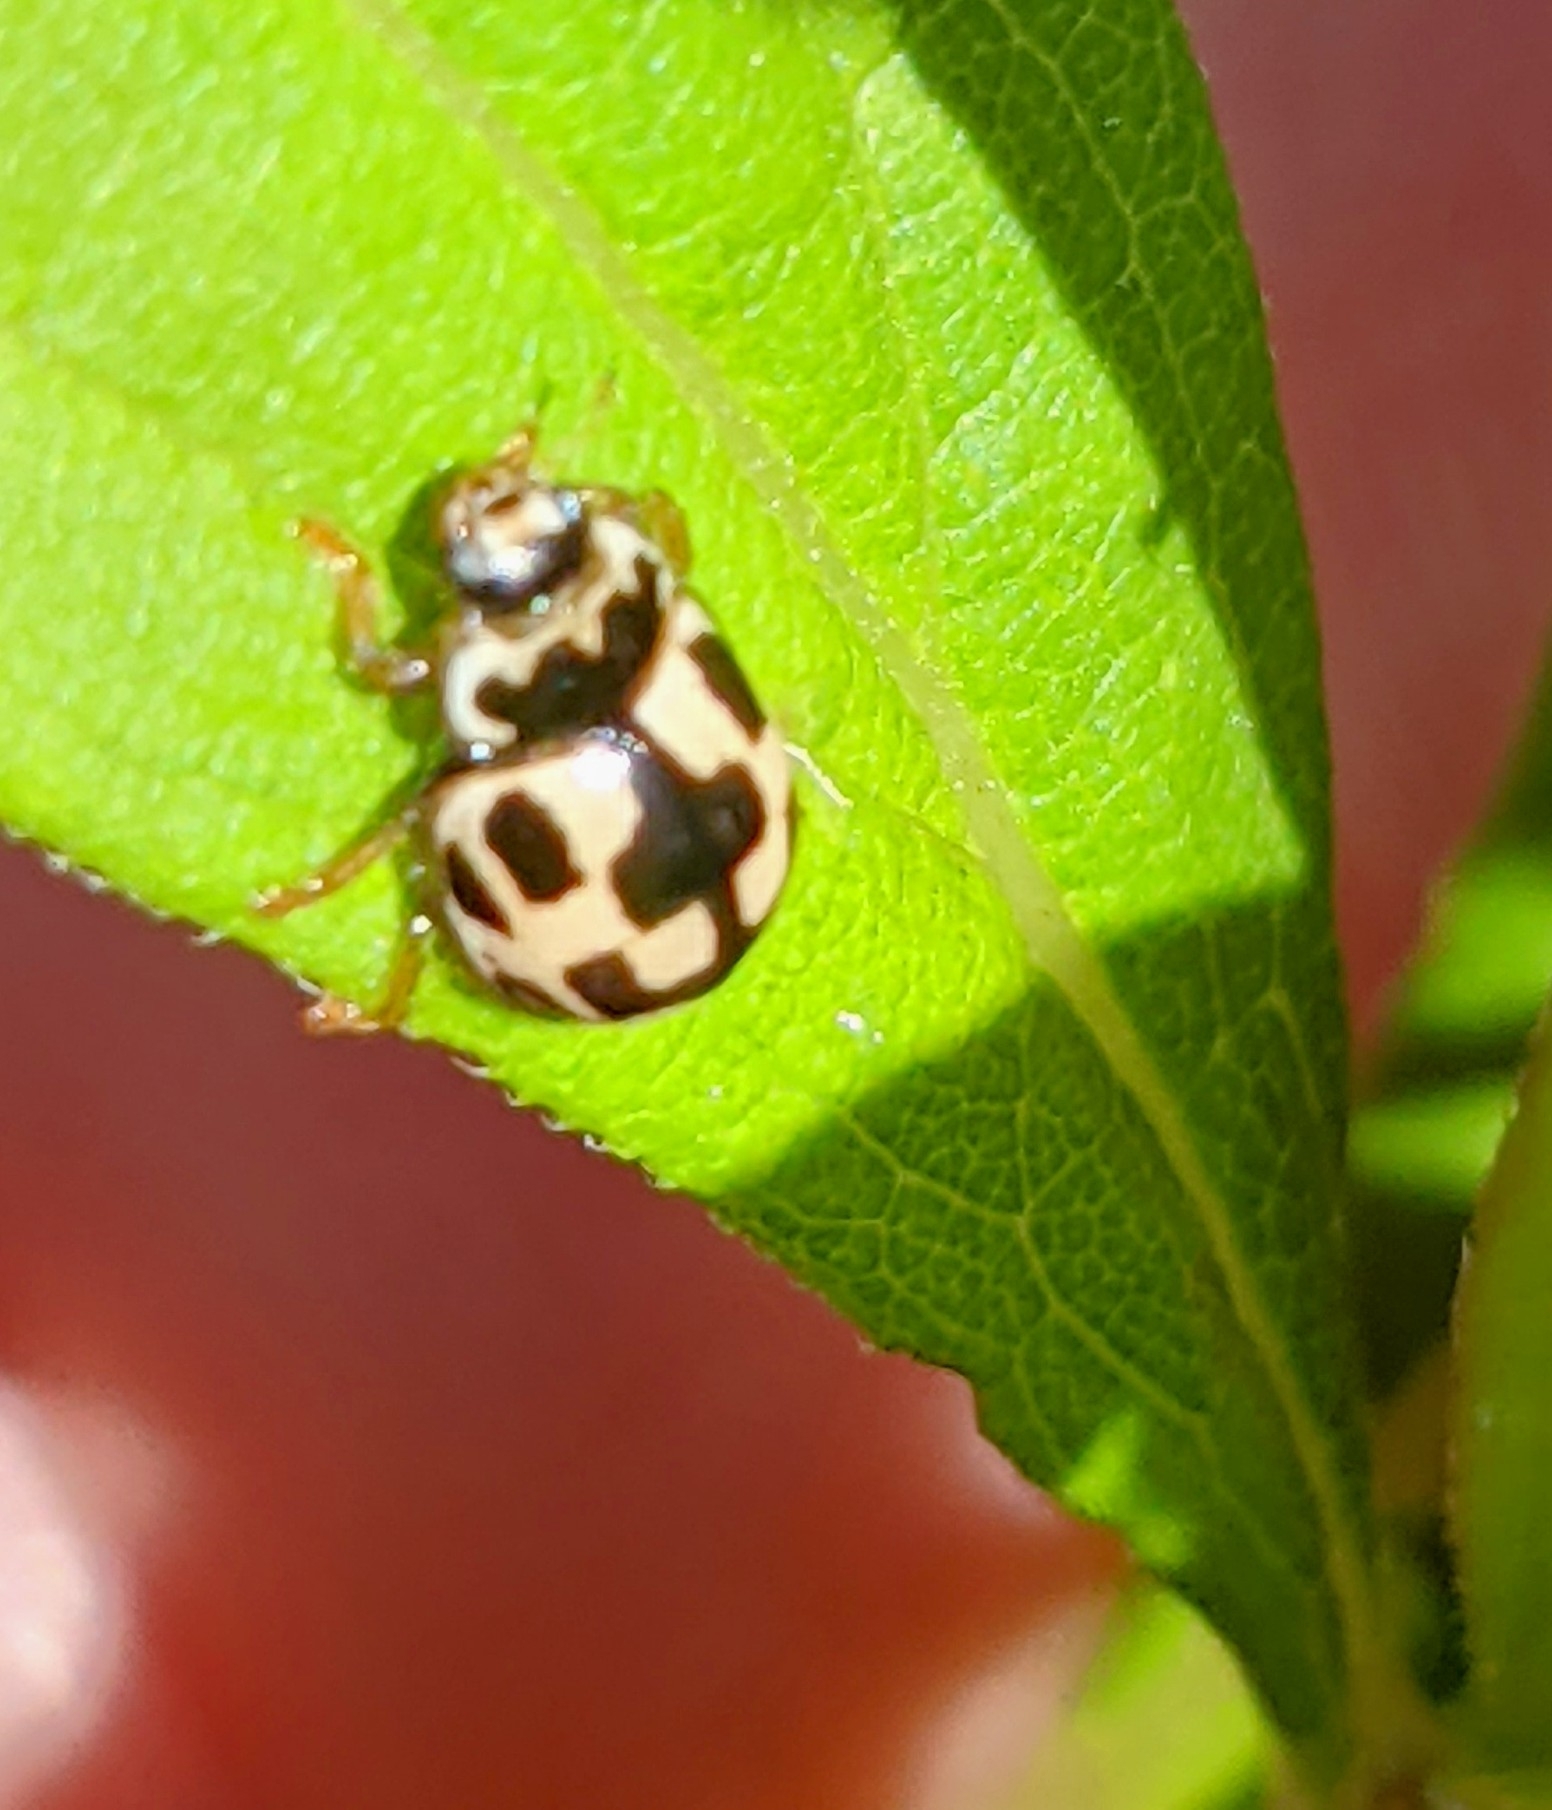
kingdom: Animalia
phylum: Arthropoda
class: Insecta
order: Coleoptera
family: Coccinellidae
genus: Propylaea
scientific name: Propylaea quatuordecimpunctata
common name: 14-spotted ladybird beetle
